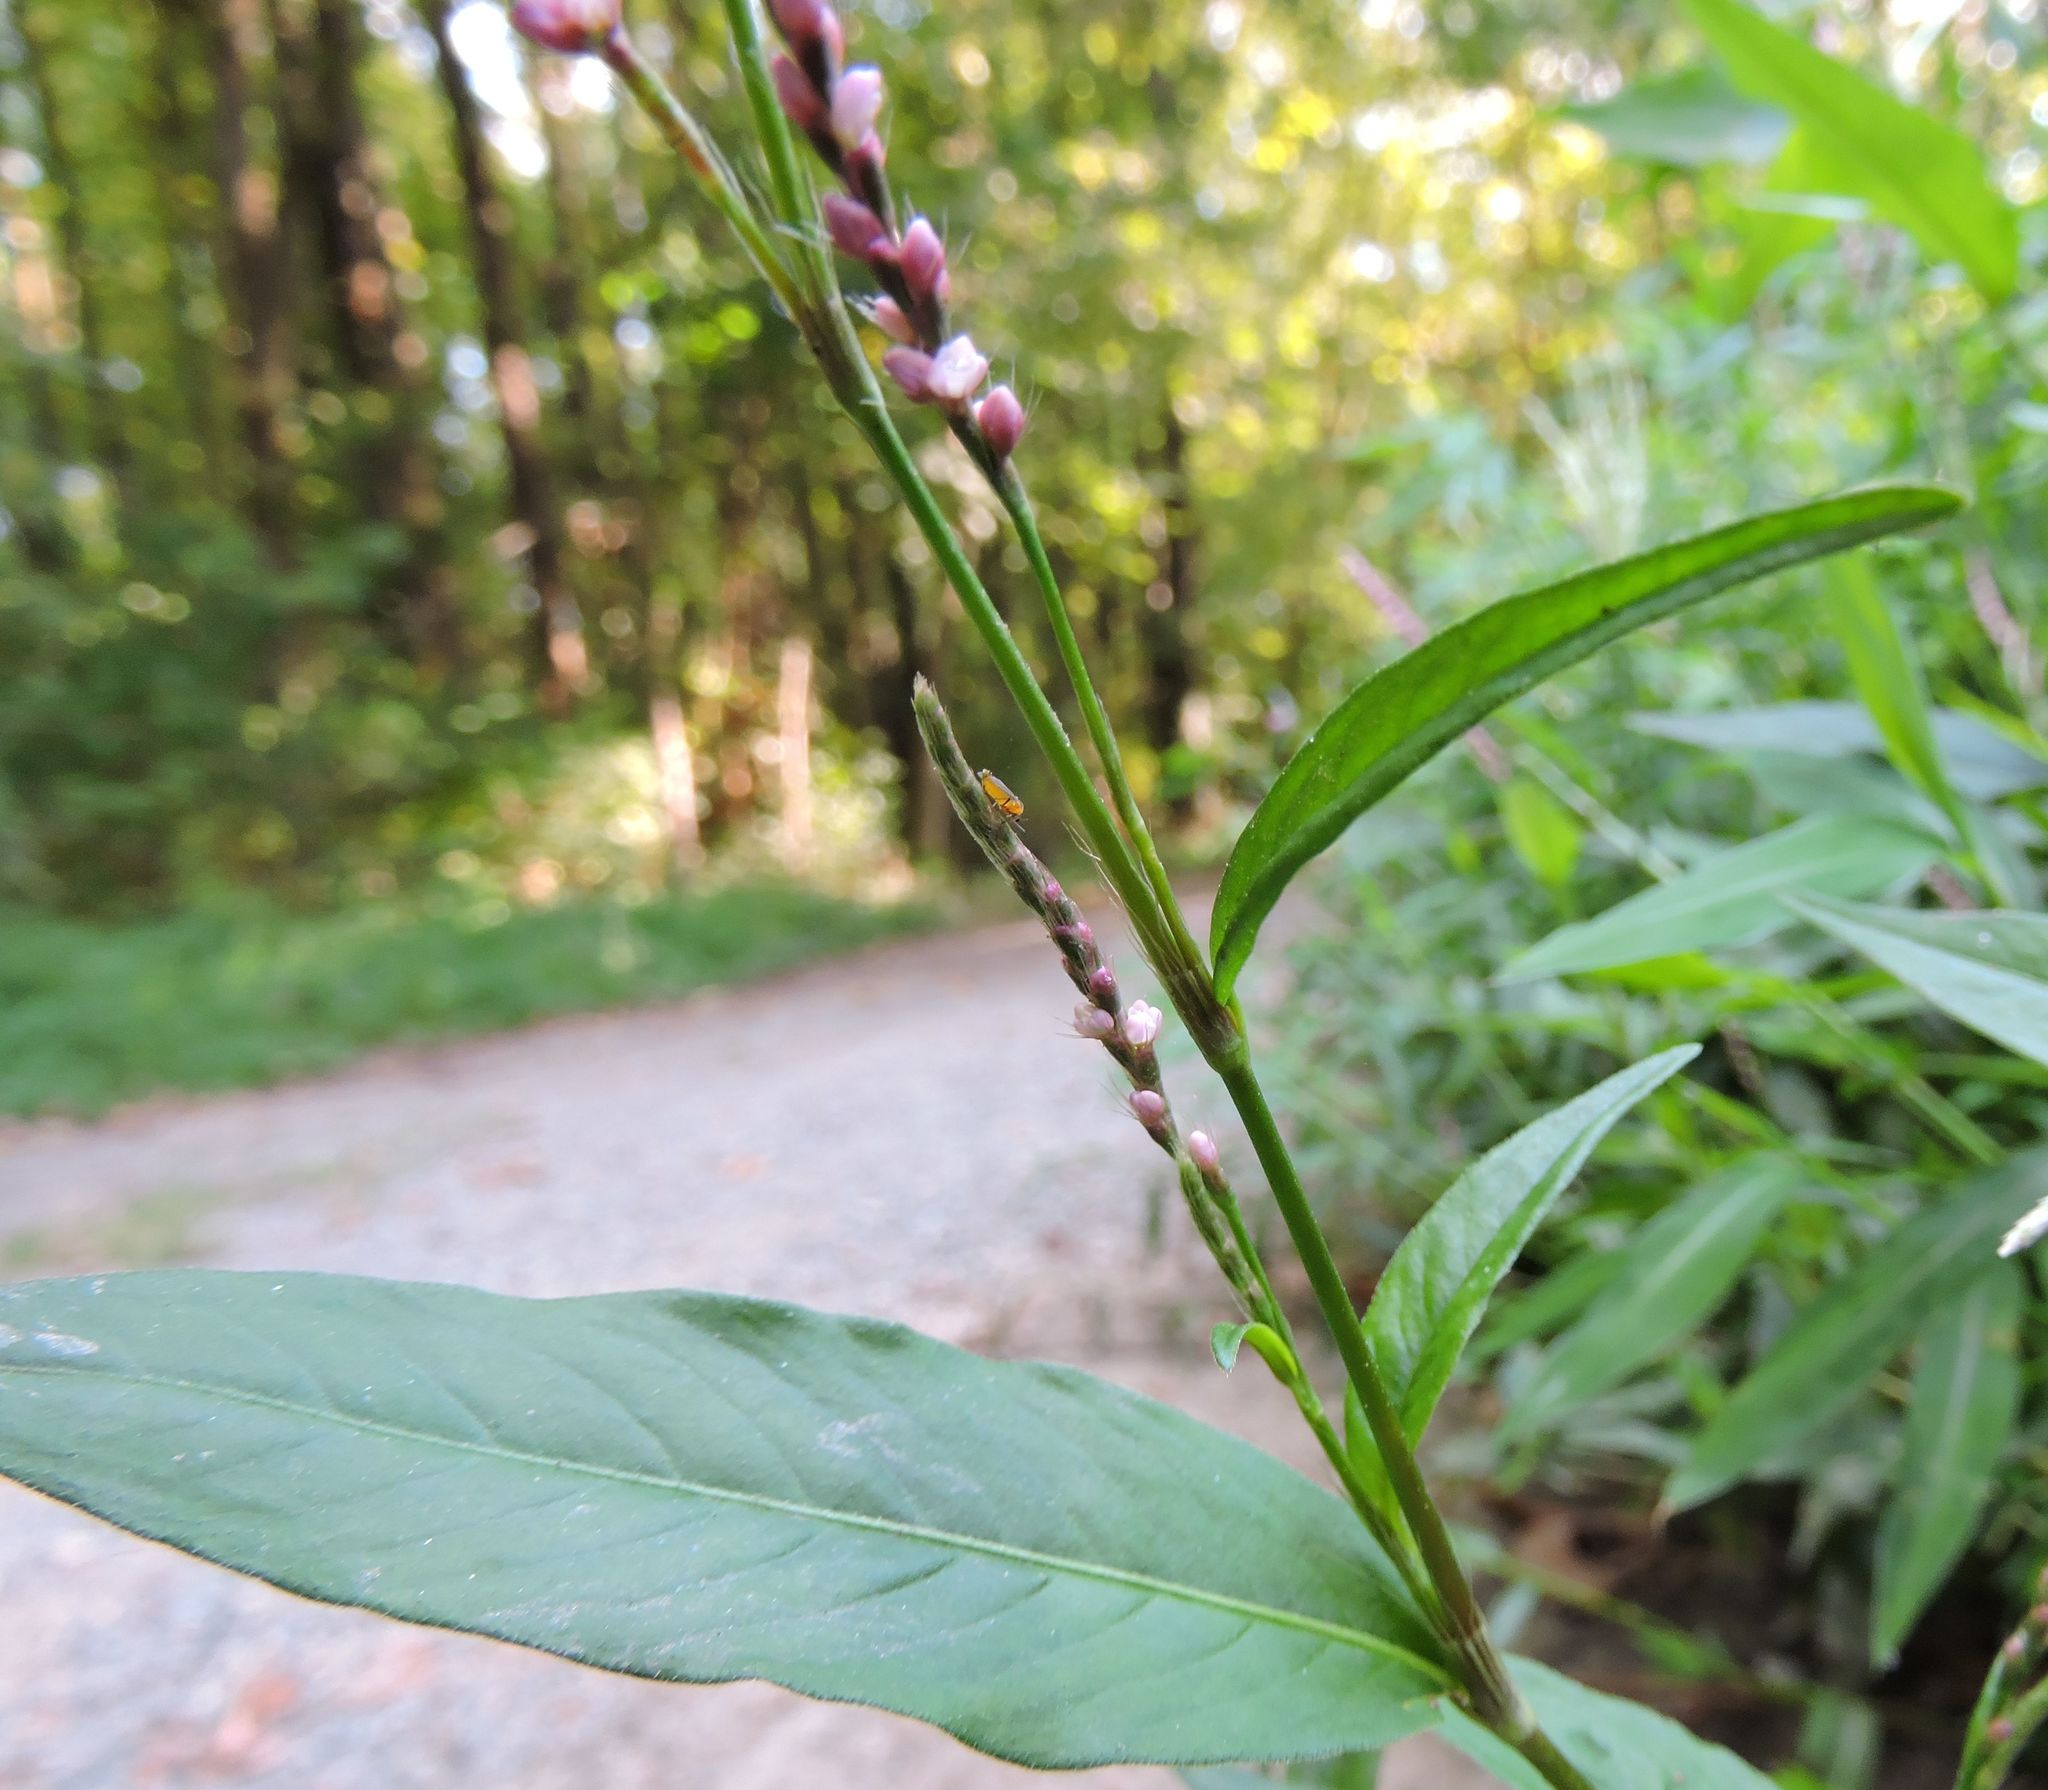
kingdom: Plantae
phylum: Tracheophyta
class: Magnoliopsida
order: Caryophyllales
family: Polygonaceae
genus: Persicaria
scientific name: Persicaria longiseta
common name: Bristly lady's-thumb
